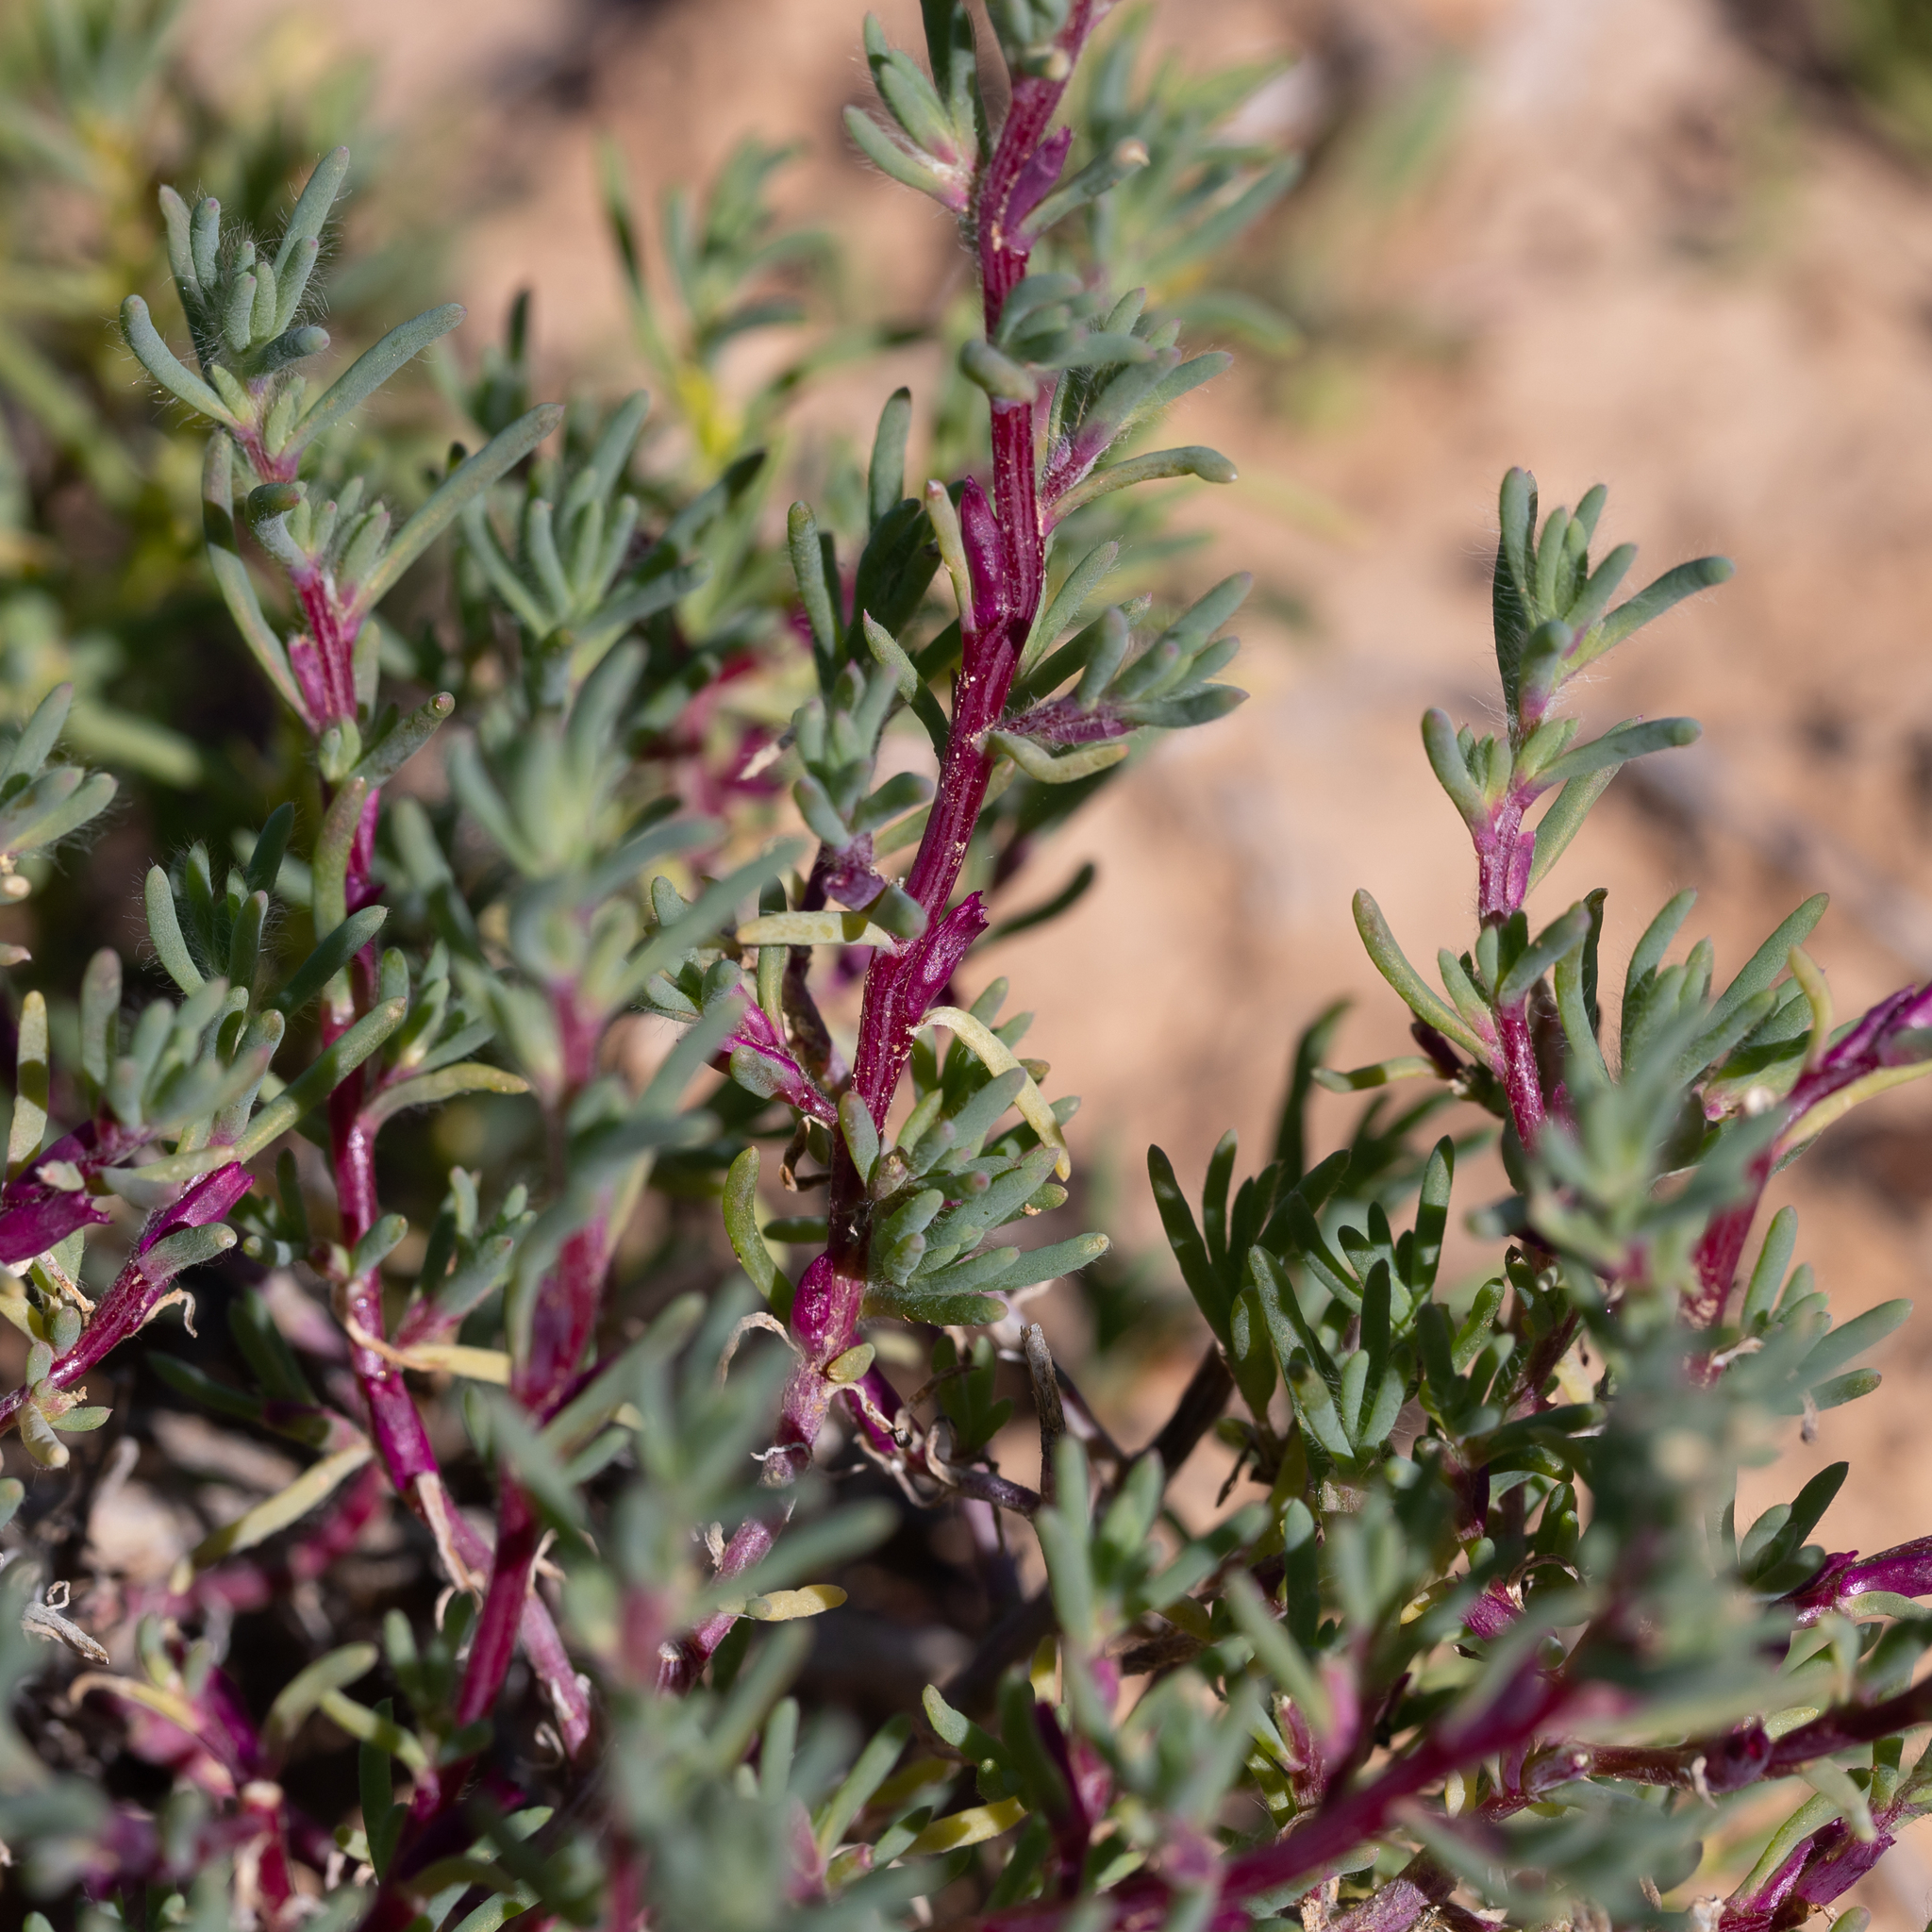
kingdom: Plantae
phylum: Tracheophyta
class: Magnoliopsida
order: Caryophyllales
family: Amaranthaceae
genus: Neobassia
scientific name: Neobassia proceriflora
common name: Desert-glasswort
